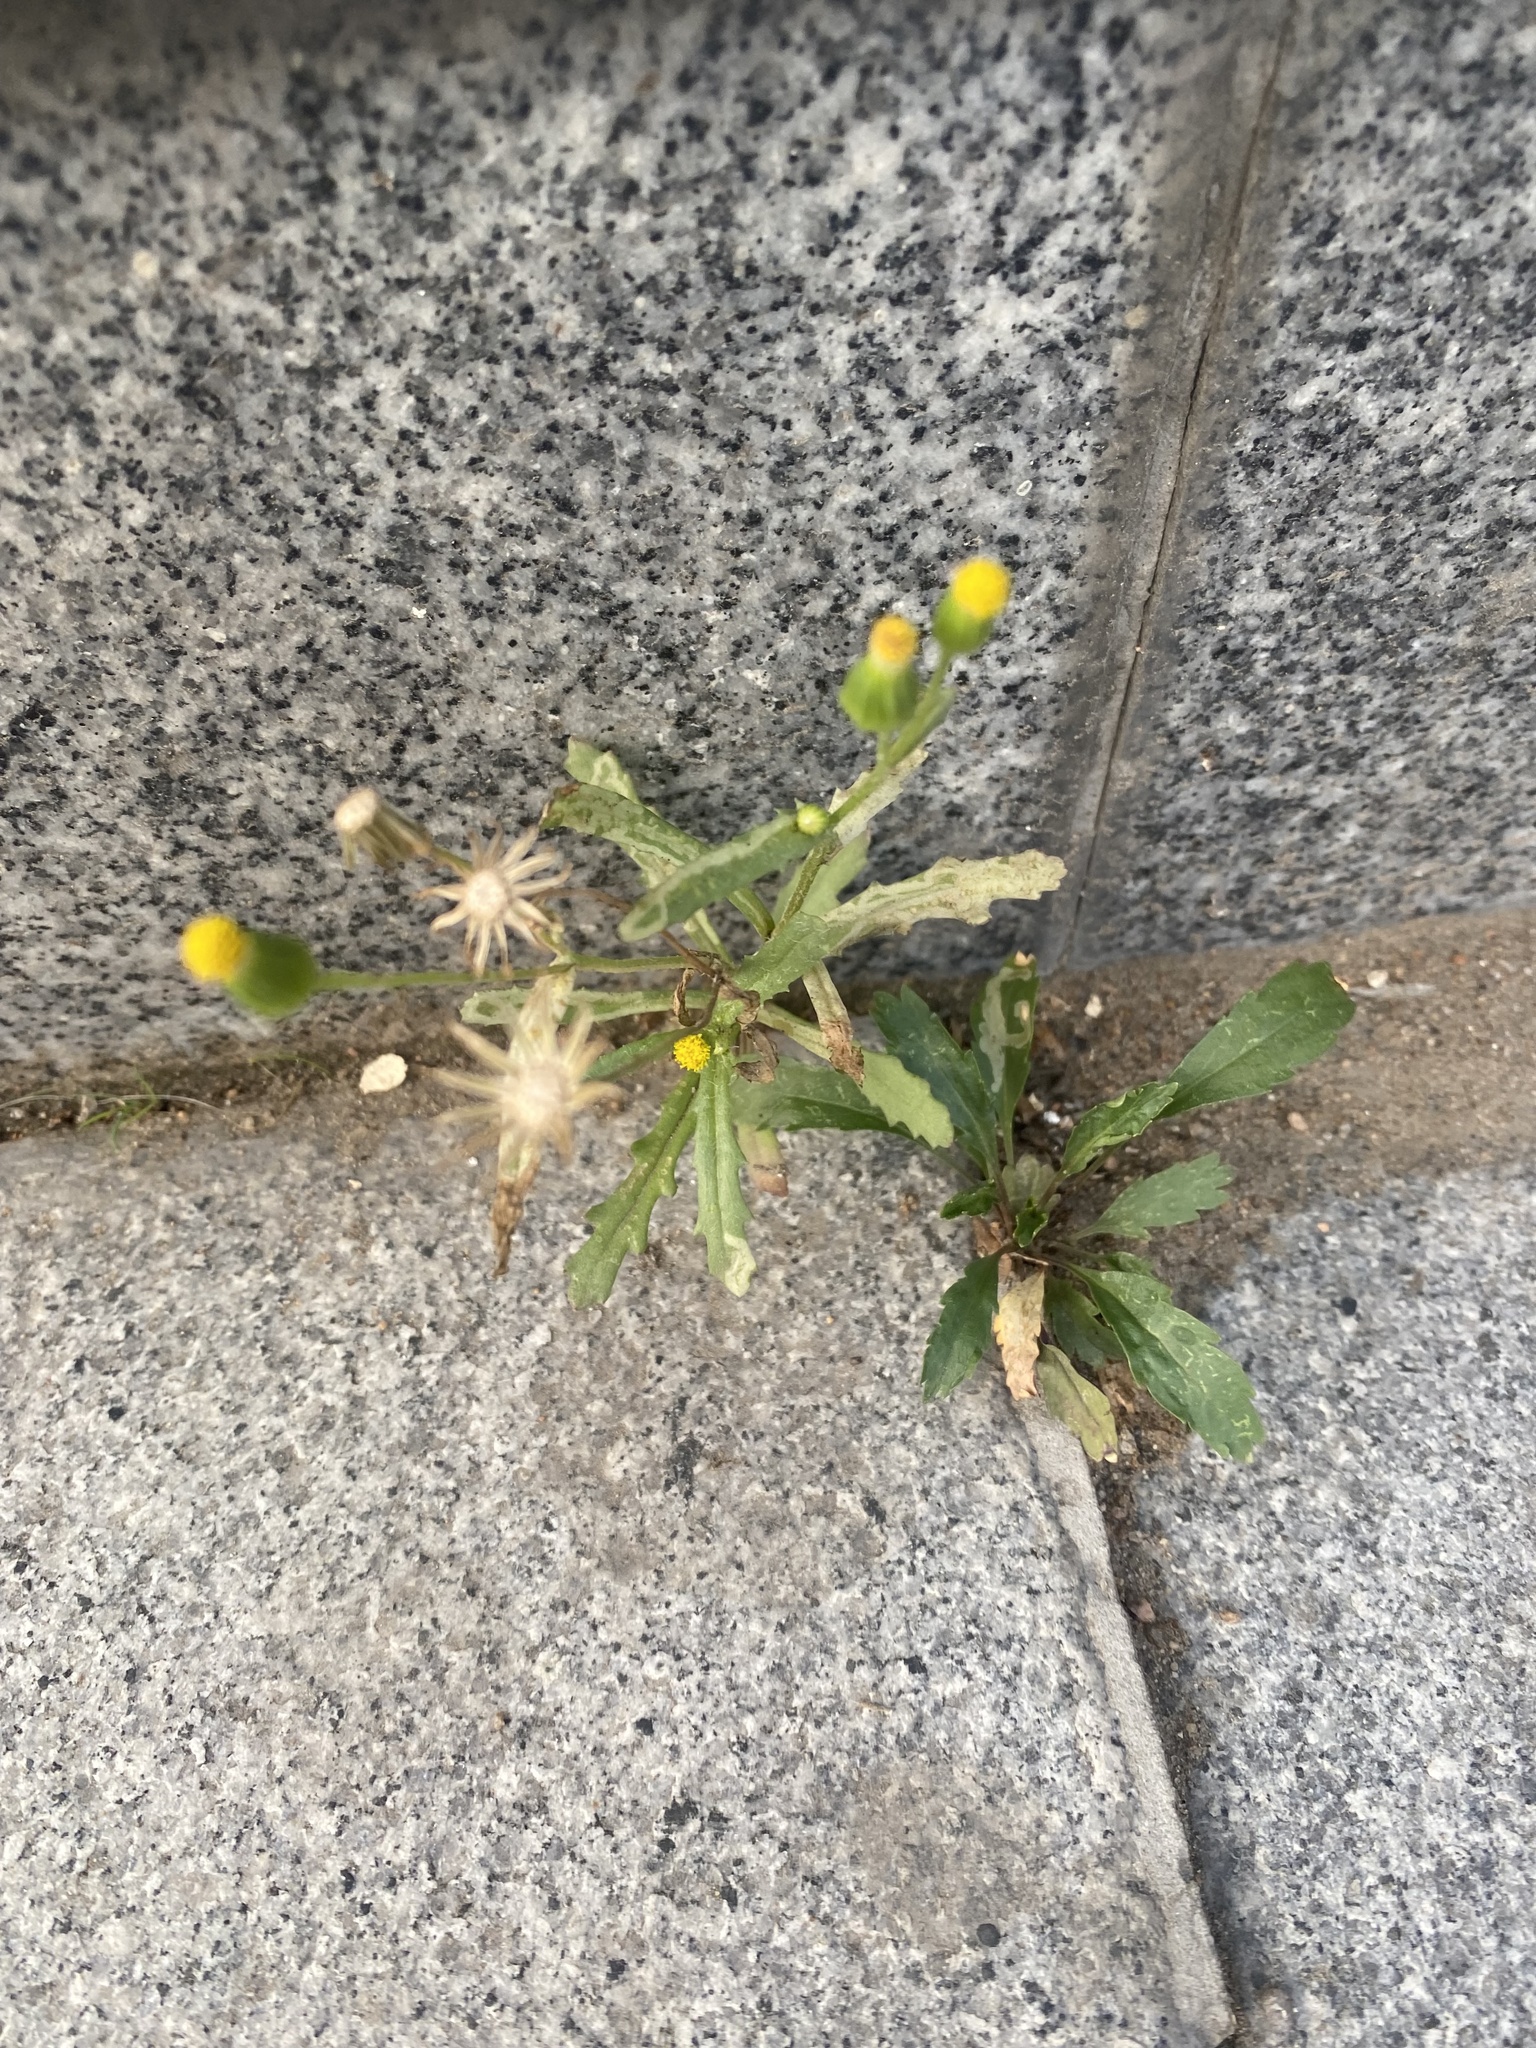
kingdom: Plantae
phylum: Tracheophyta
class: Magnoliopsida
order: Asterales
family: Asteraceae
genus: Senecio
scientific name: Senecio dubitabilis
